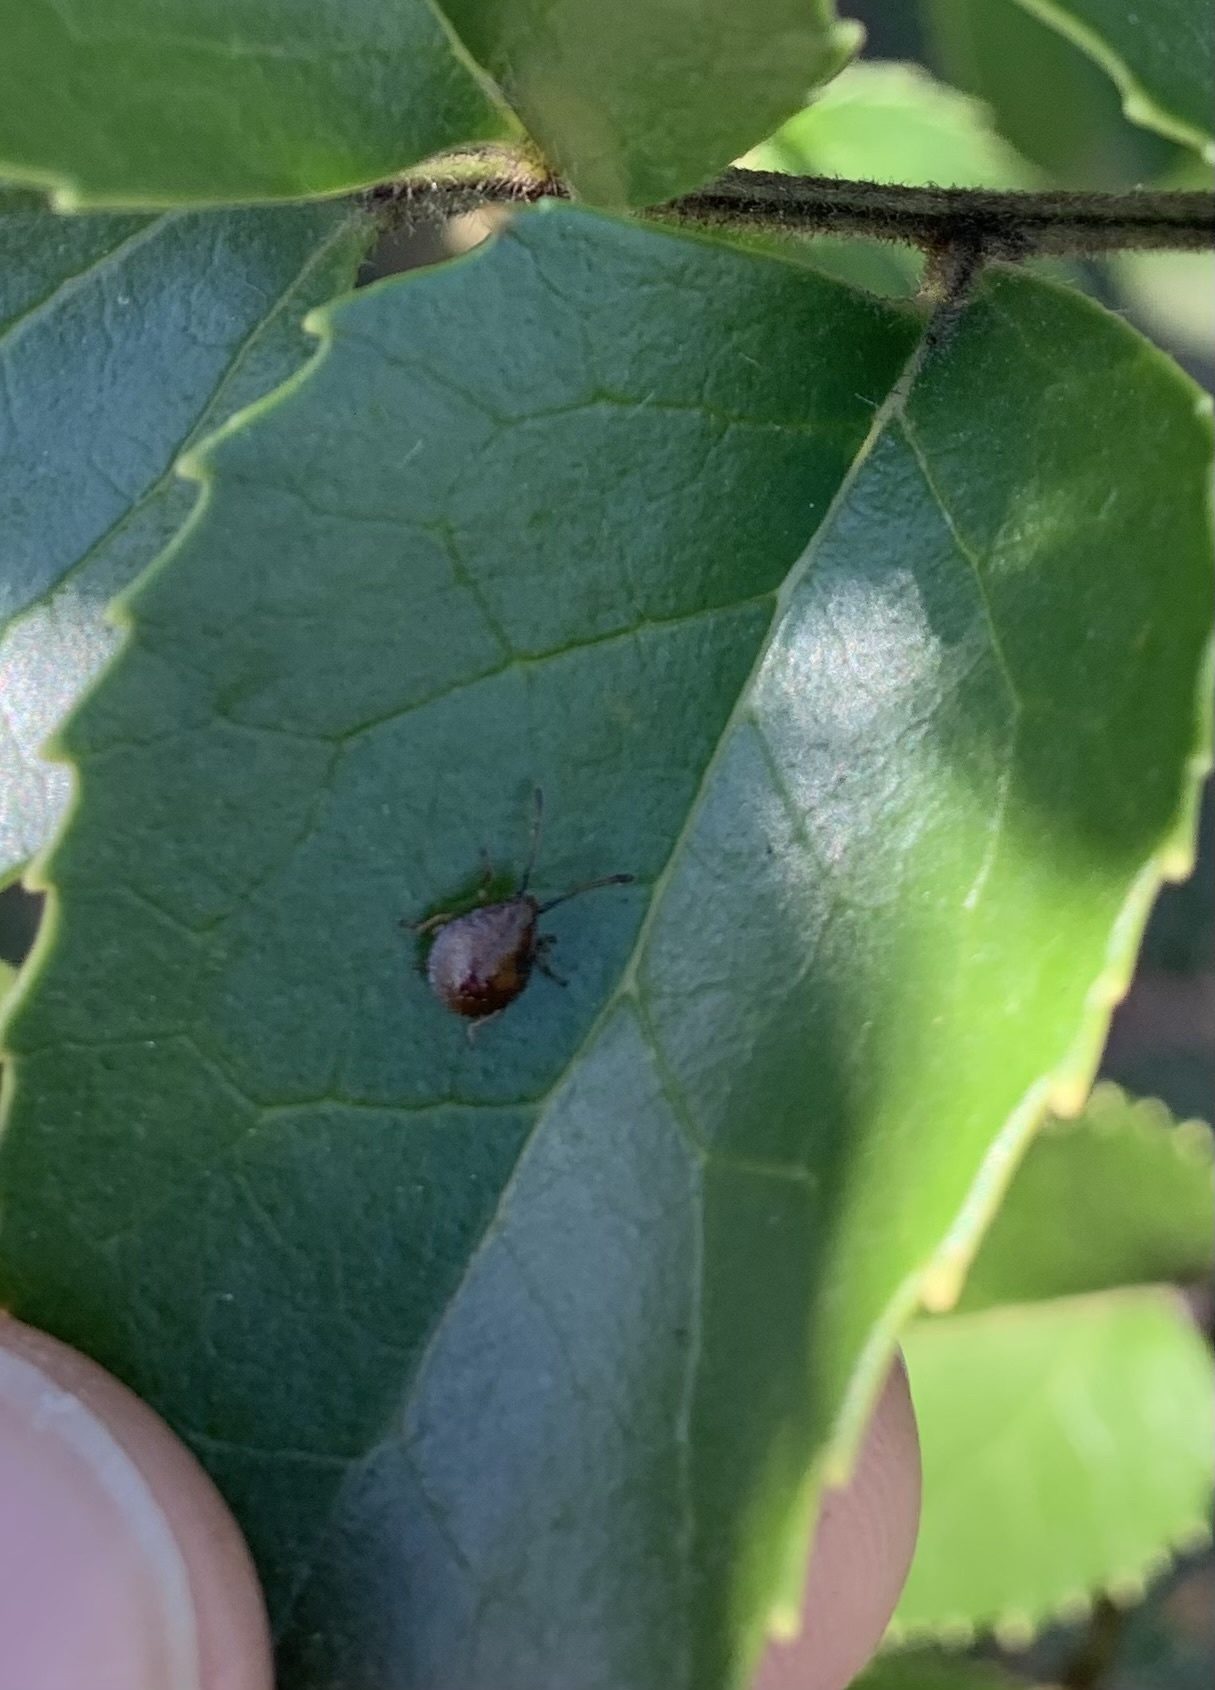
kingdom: Animalia
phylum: Arthropoda
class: Insecta
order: Hemiptera
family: Acanthosomatidae
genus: Planois
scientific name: Planois gayi
